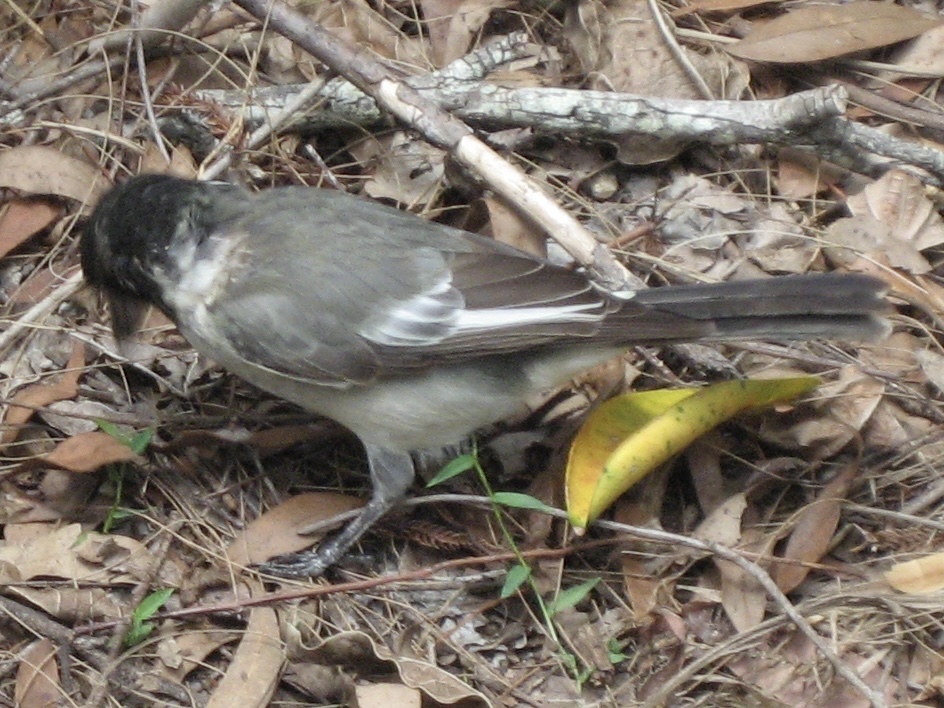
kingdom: Animalia
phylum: Chordata
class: Aves
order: Passeriformes
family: Cracticidae
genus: Cracticus
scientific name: Cracticus torquatus
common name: Grey butcherbird
